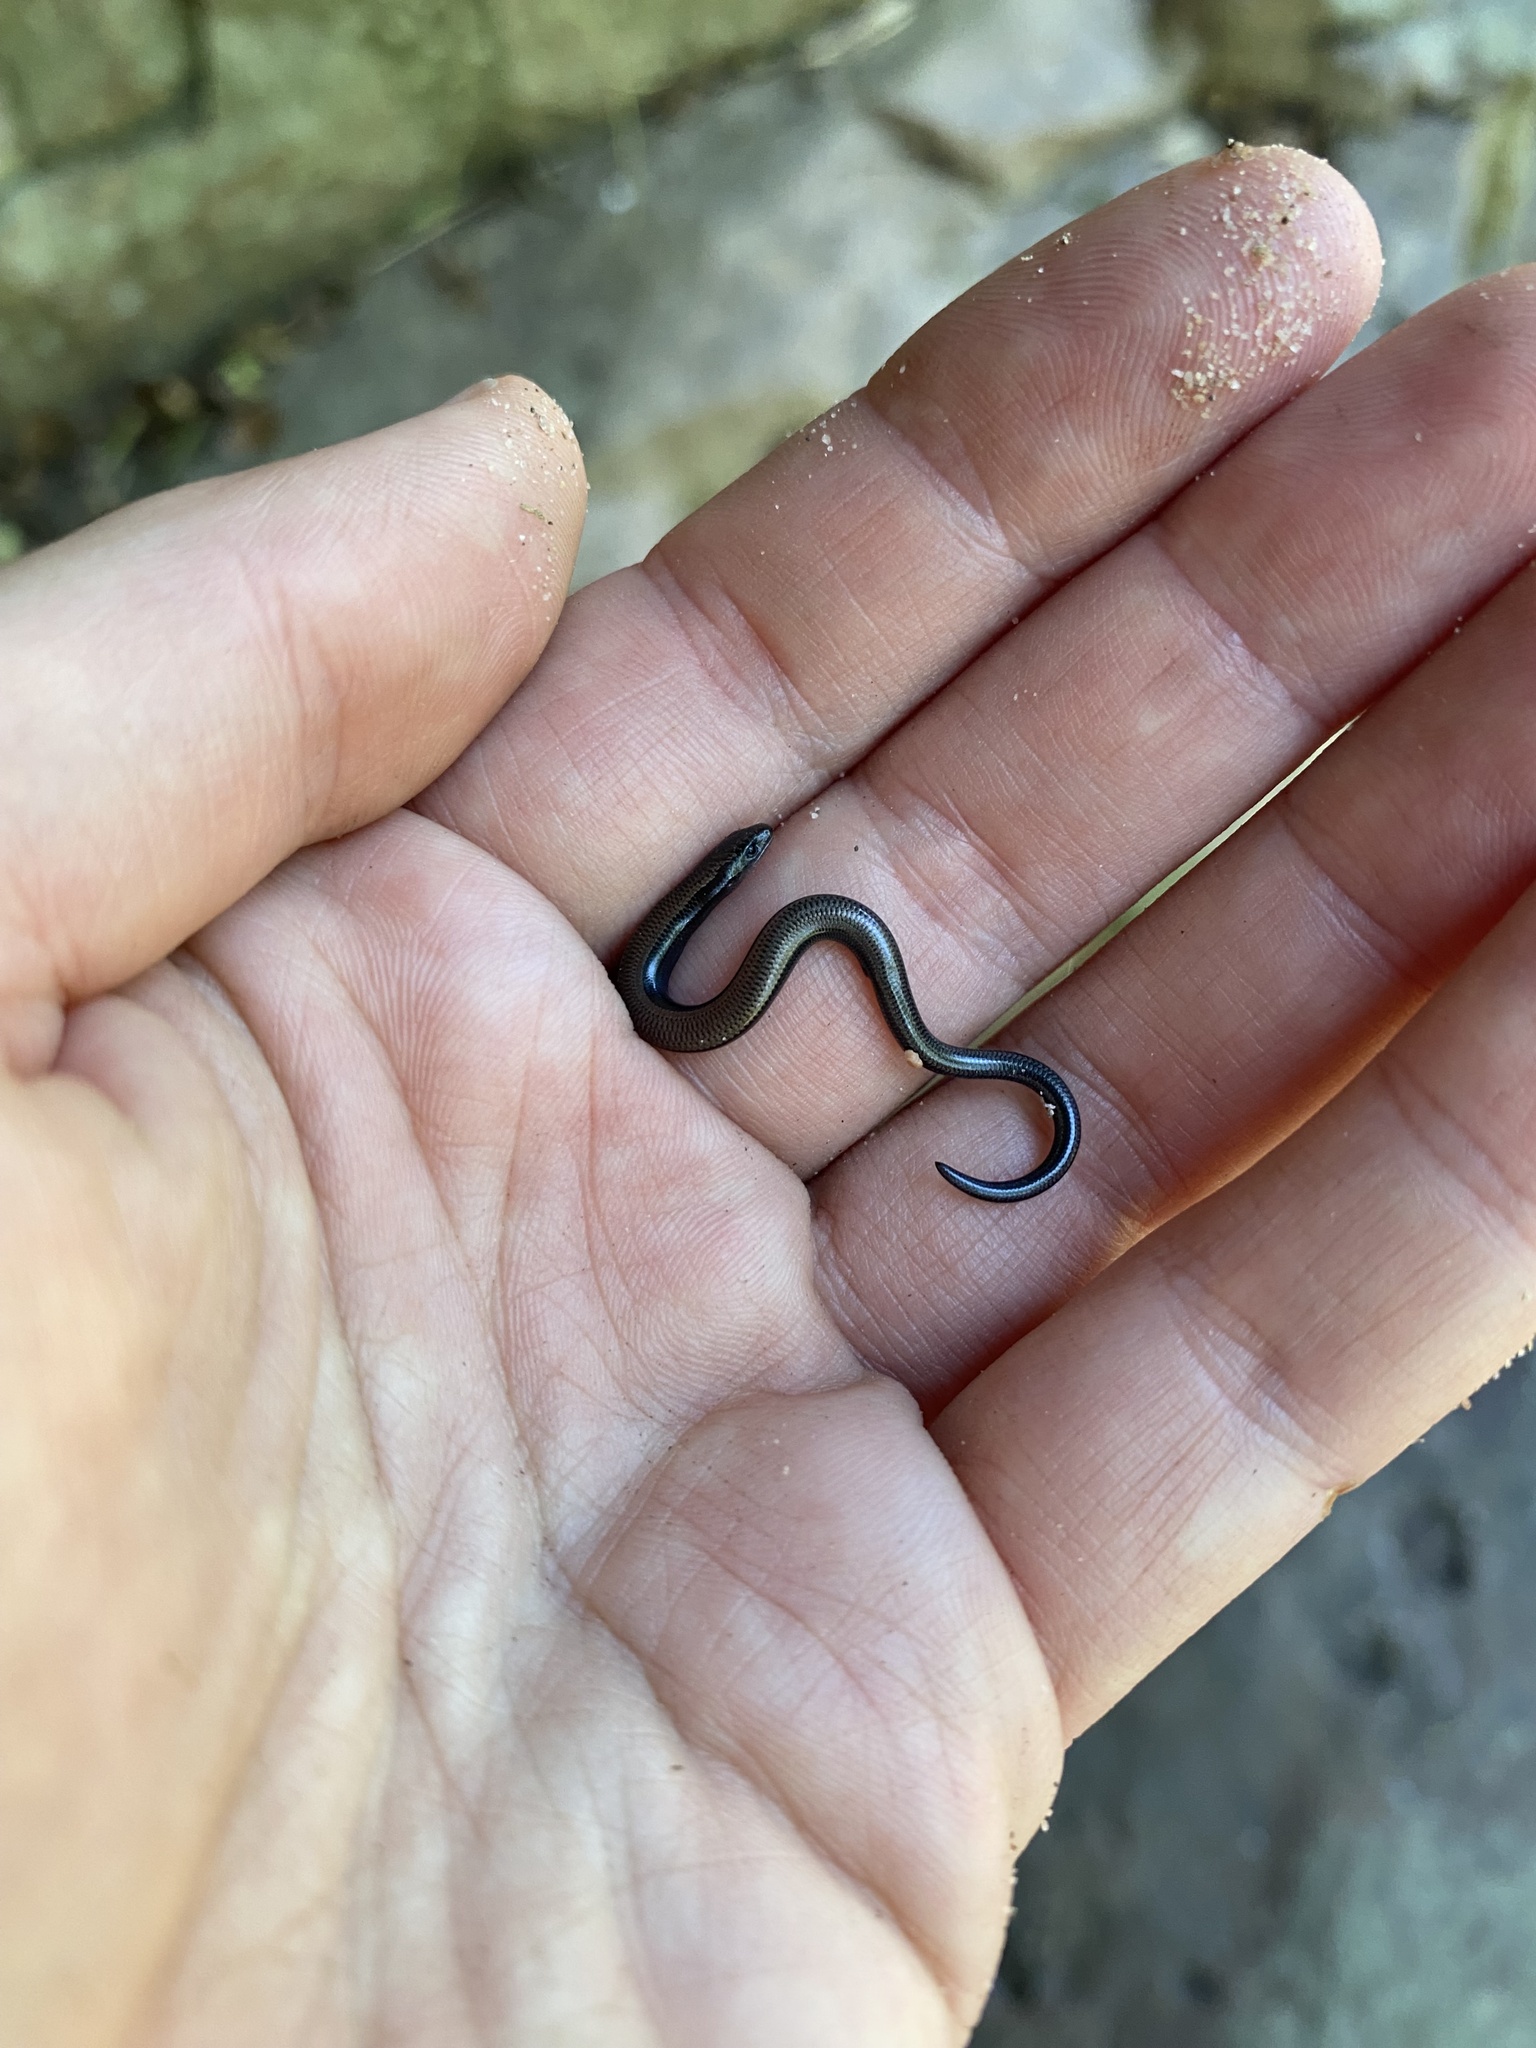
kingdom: Animalia
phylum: Chordata
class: Squamata
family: Scincidae
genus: Scelotes
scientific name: Scelotes mossambicus
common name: Mozambique dwarf burrowing skink
